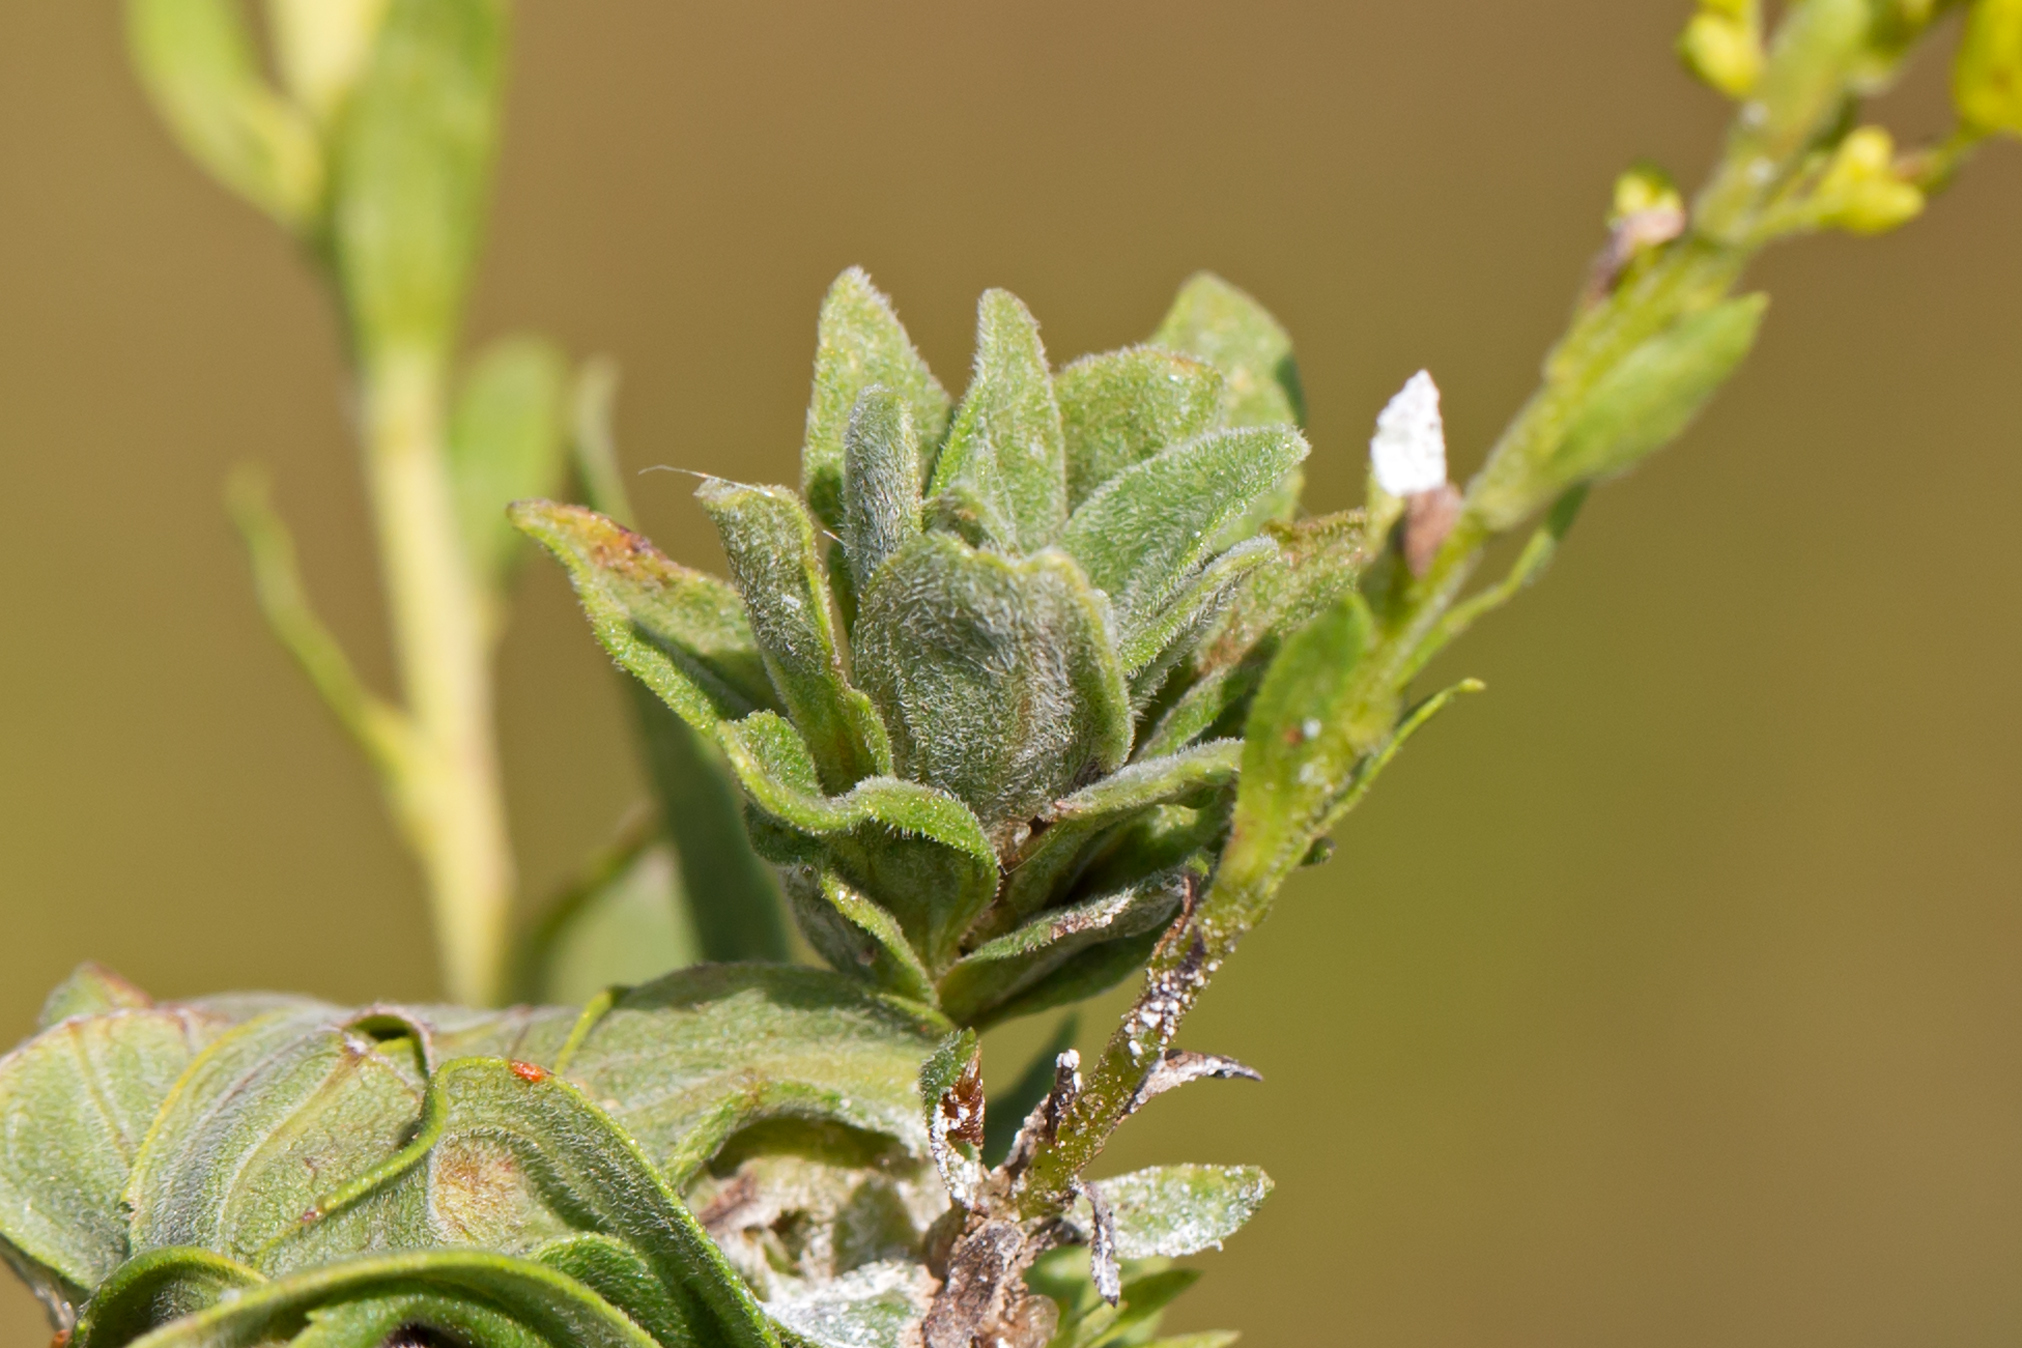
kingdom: Animalia
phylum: Arthropoda
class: Insecta
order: Diptera
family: Cecidomyiidae
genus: Asphondylia
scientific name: Asphondylia solidaginis
